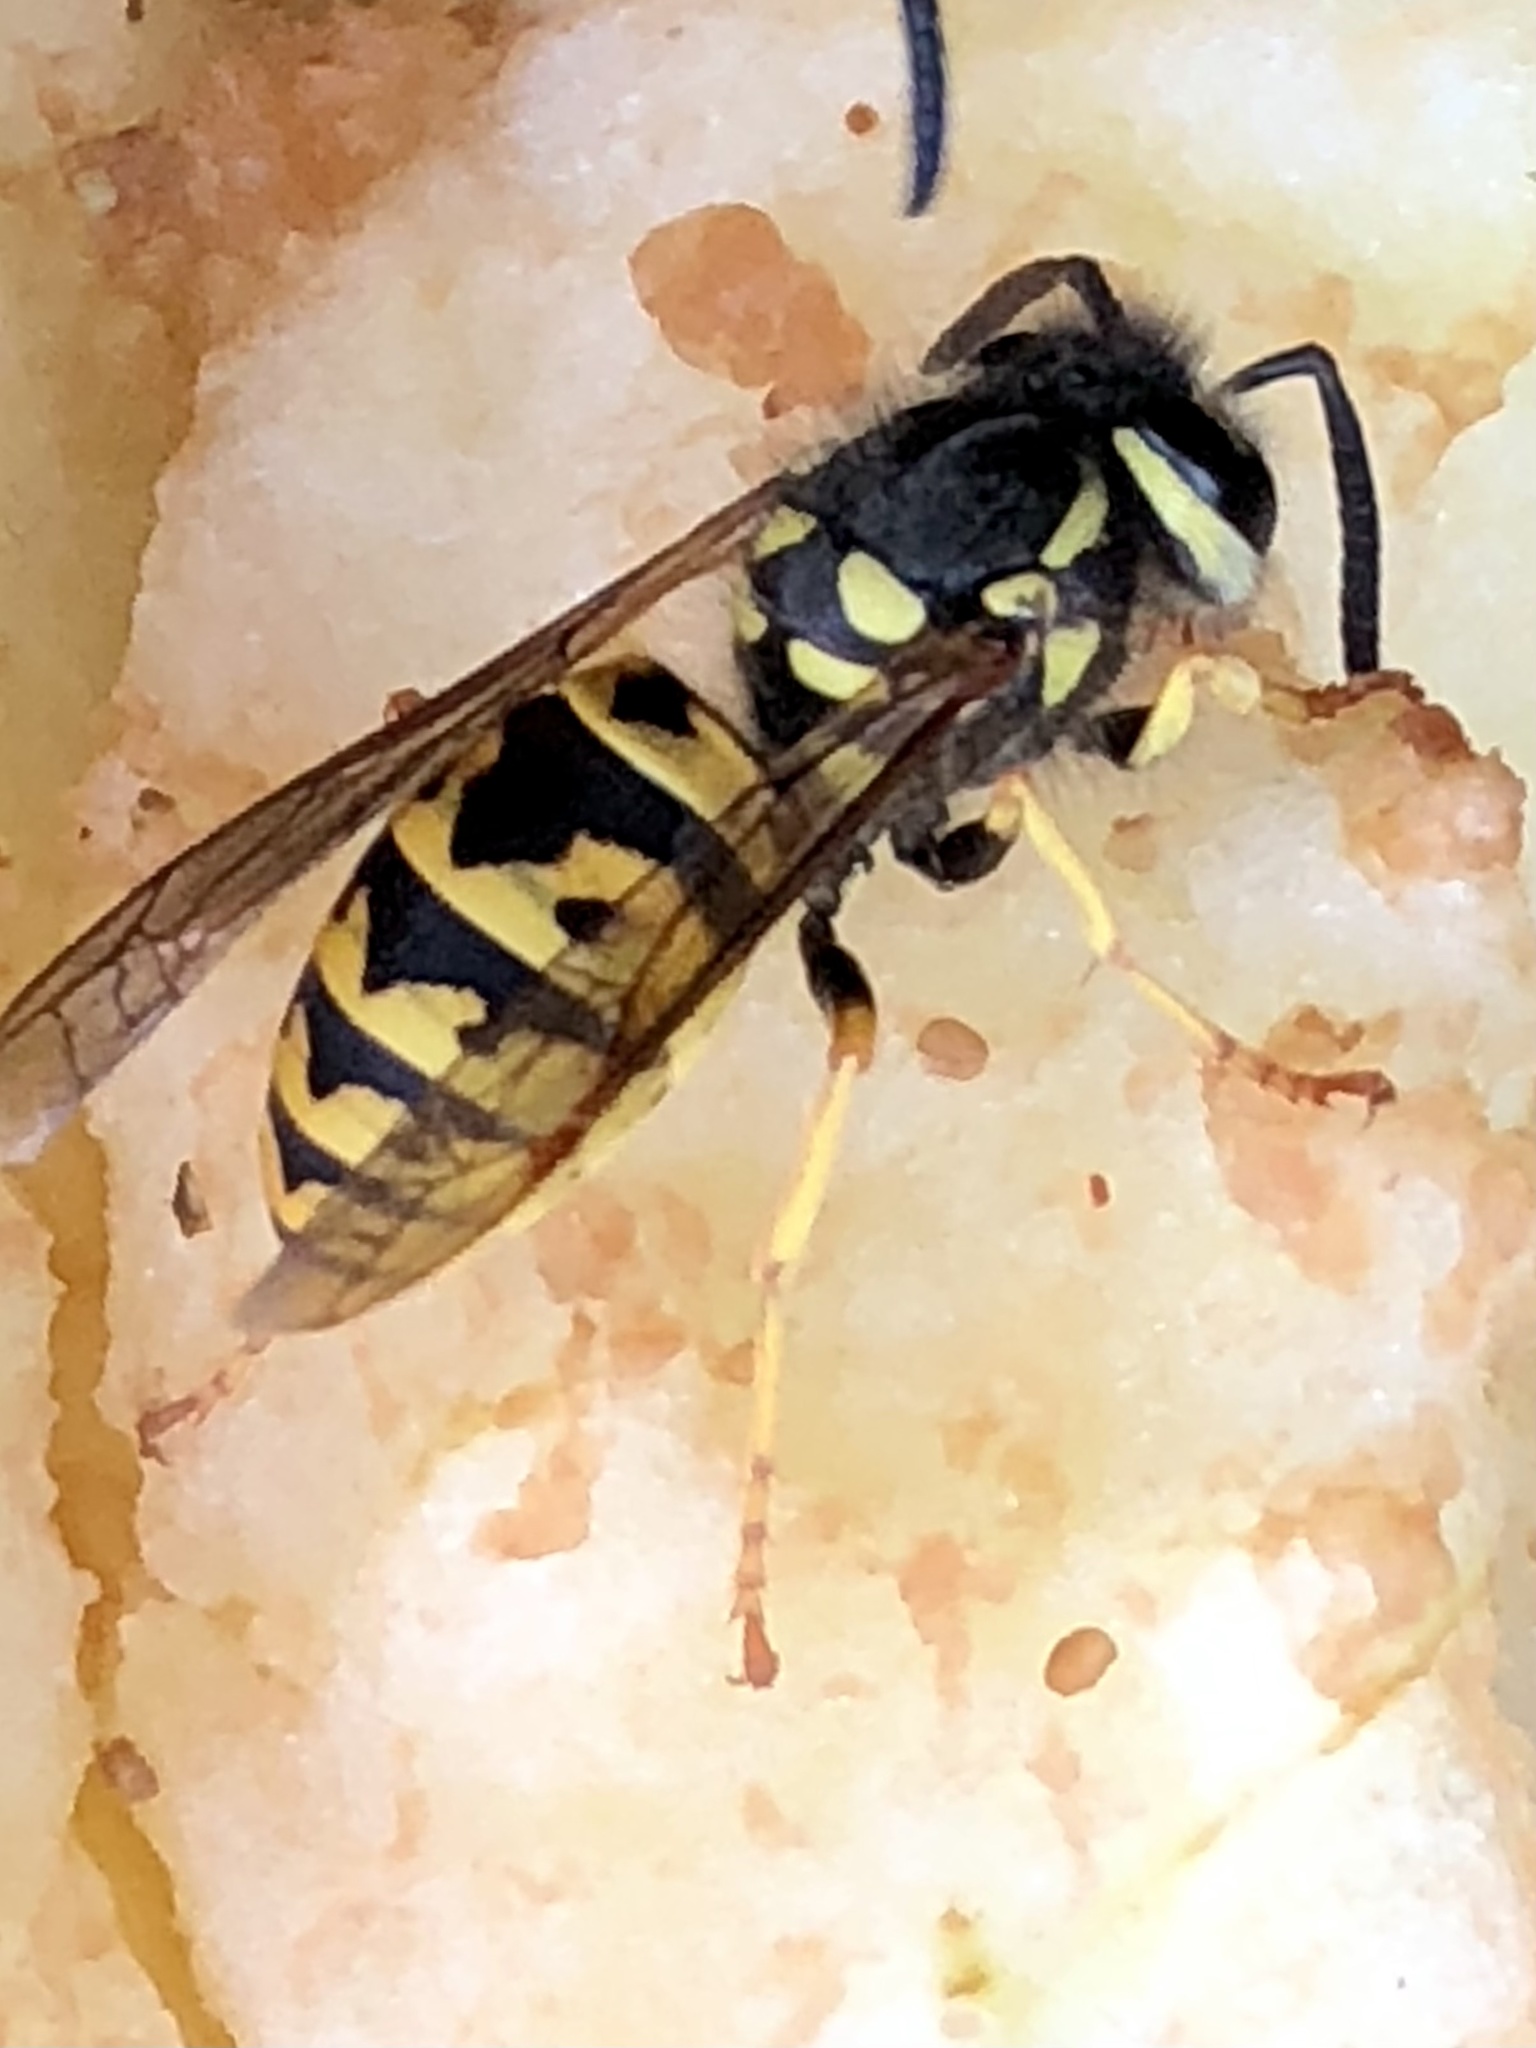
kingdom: Animalia
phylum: Arthropoda
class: Insecta
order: Hymenoptera
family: Vespidae
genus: Vespula
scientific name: Vespula germanica
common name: German wasp
